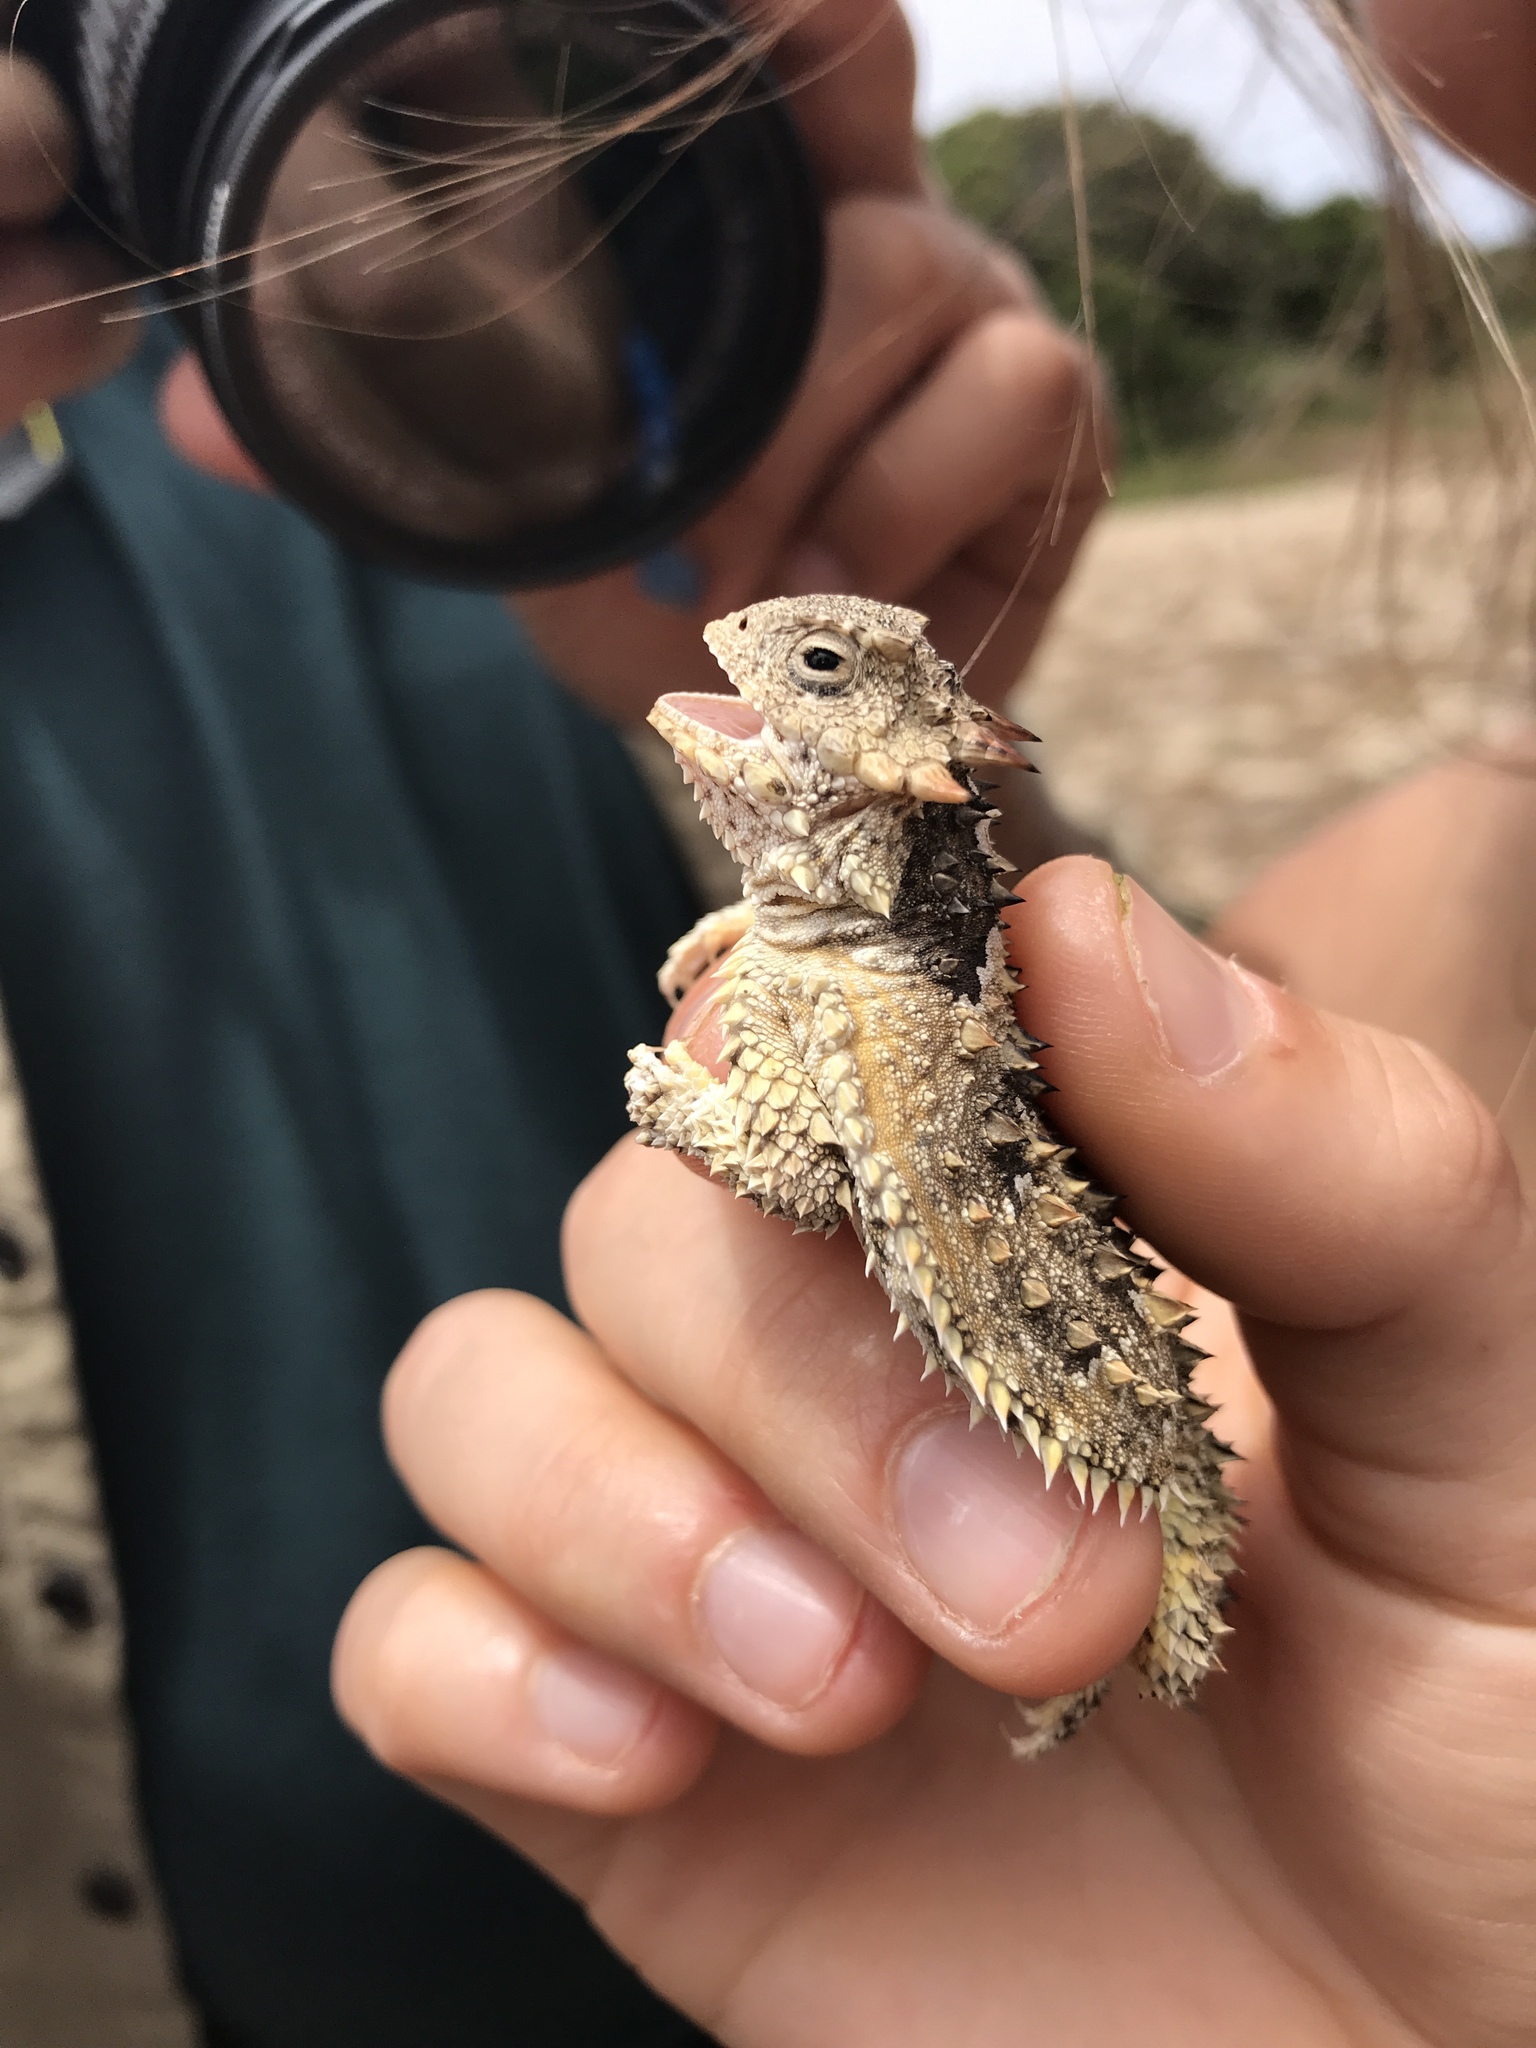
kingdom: Animalia
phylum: Chordata
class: Squamata
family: Phrynosomatidae
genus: Phrynosoma
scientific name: Phrynosoma blainvillii
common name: San diego horned lizard
